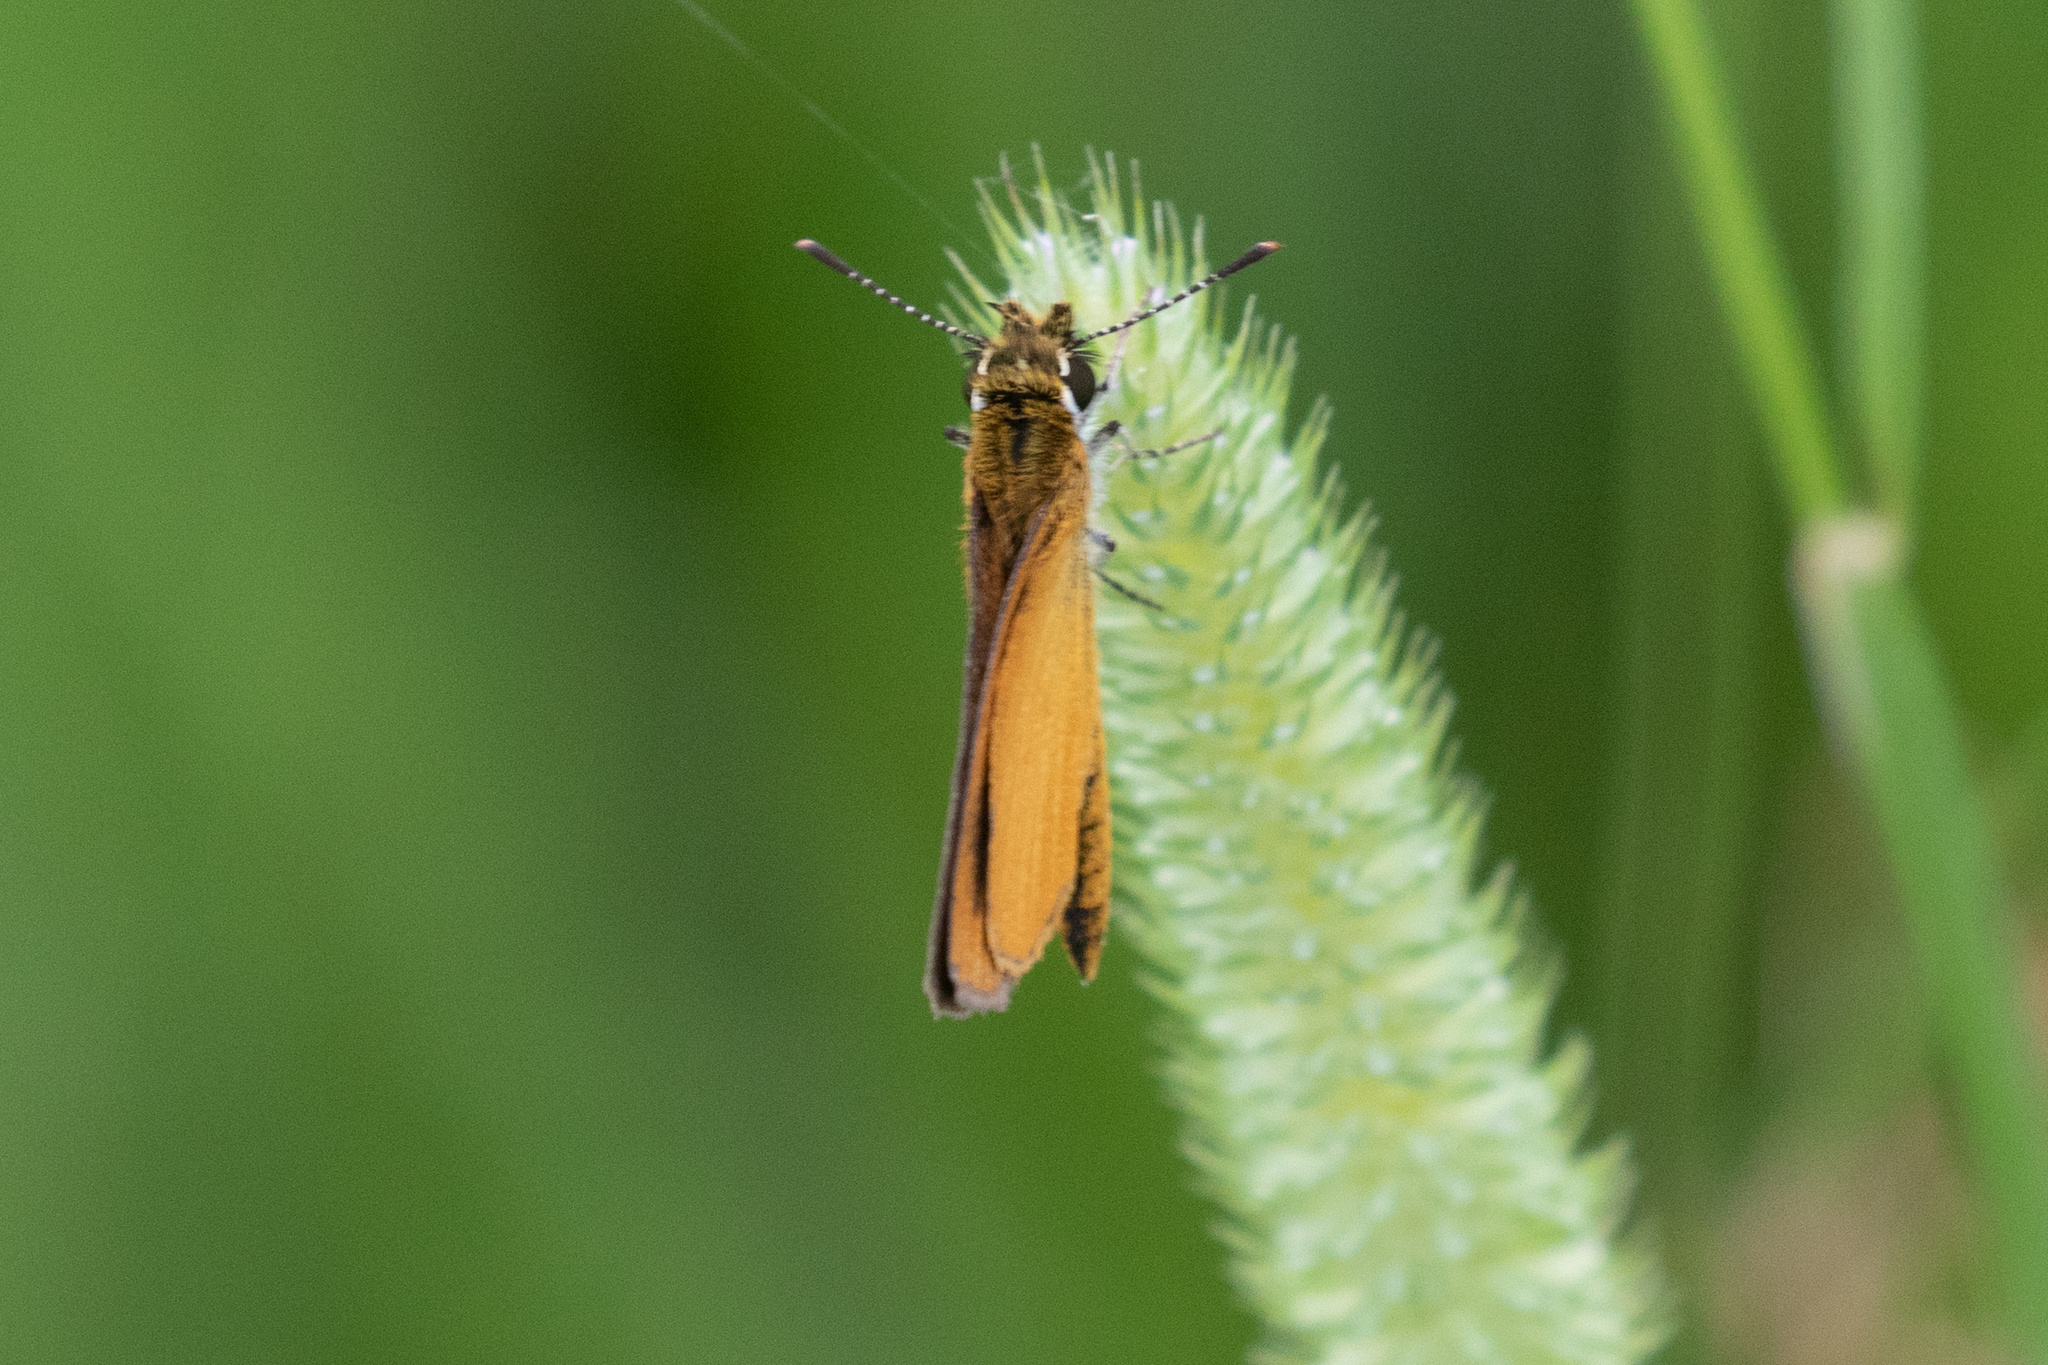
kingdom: Animalia
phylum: Arthropoda
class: Insecta
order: Lepidoptera
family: Hesperiidae
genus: Ancyloxypha
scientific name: Ancyloxypha numitor
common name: Least skipper
